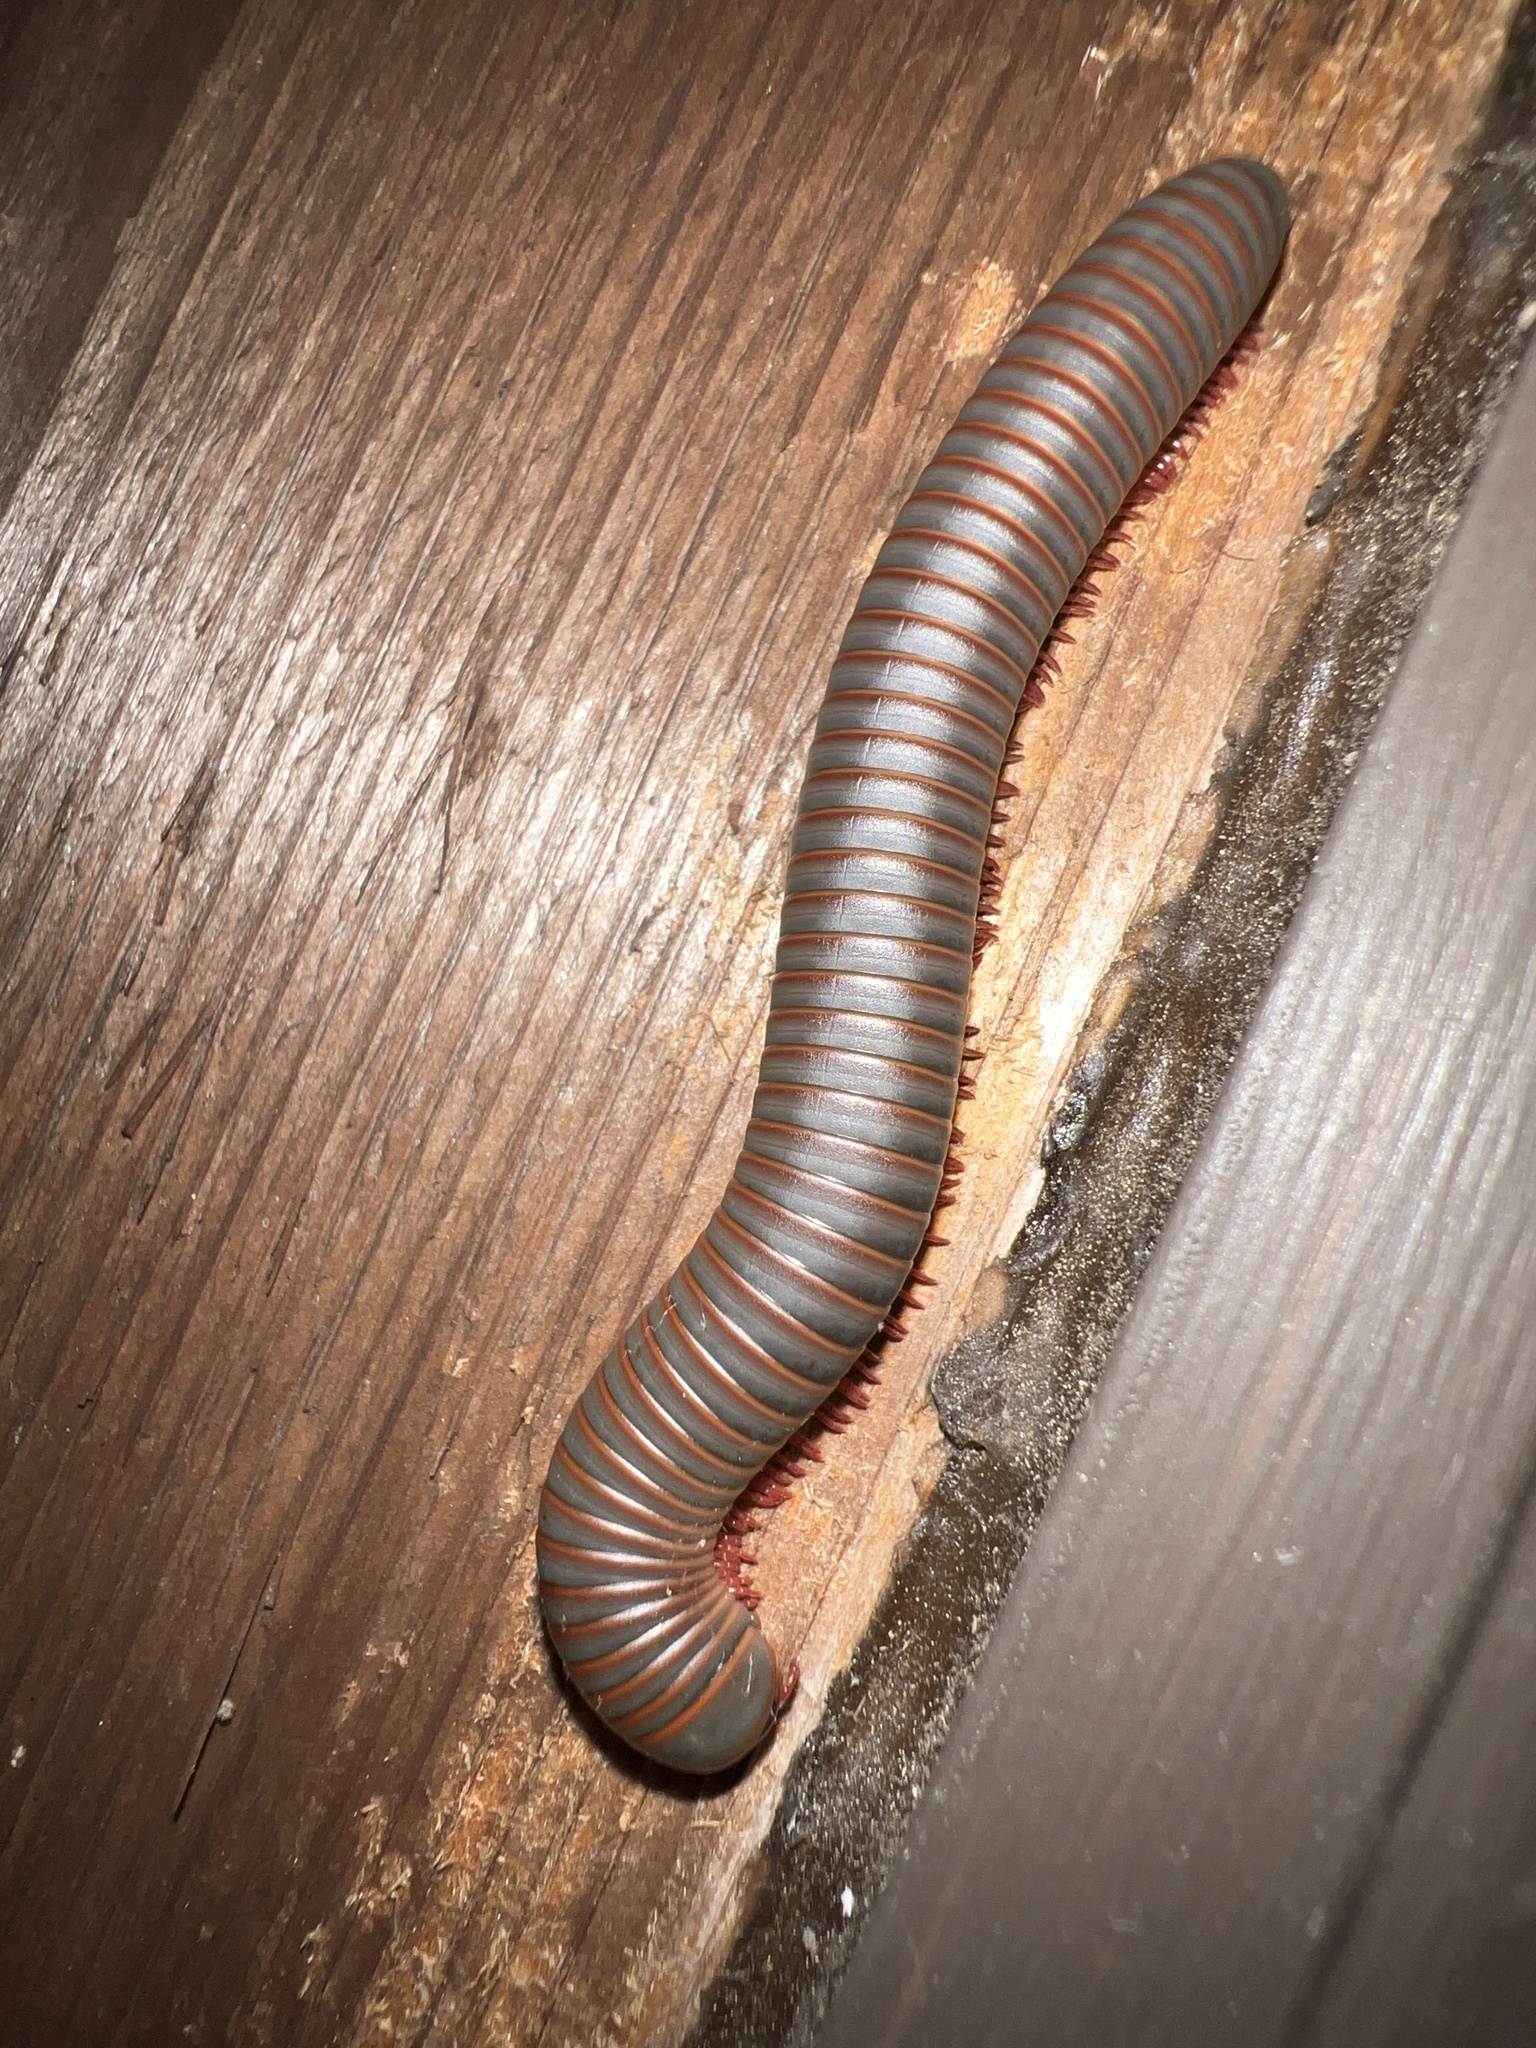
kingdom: Animalia
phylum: Arthropoda
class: Diplopoda
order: Spirobolida
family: Spirobolidae
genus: Narceus
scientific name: Narceus americanus
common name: American giant millipede
